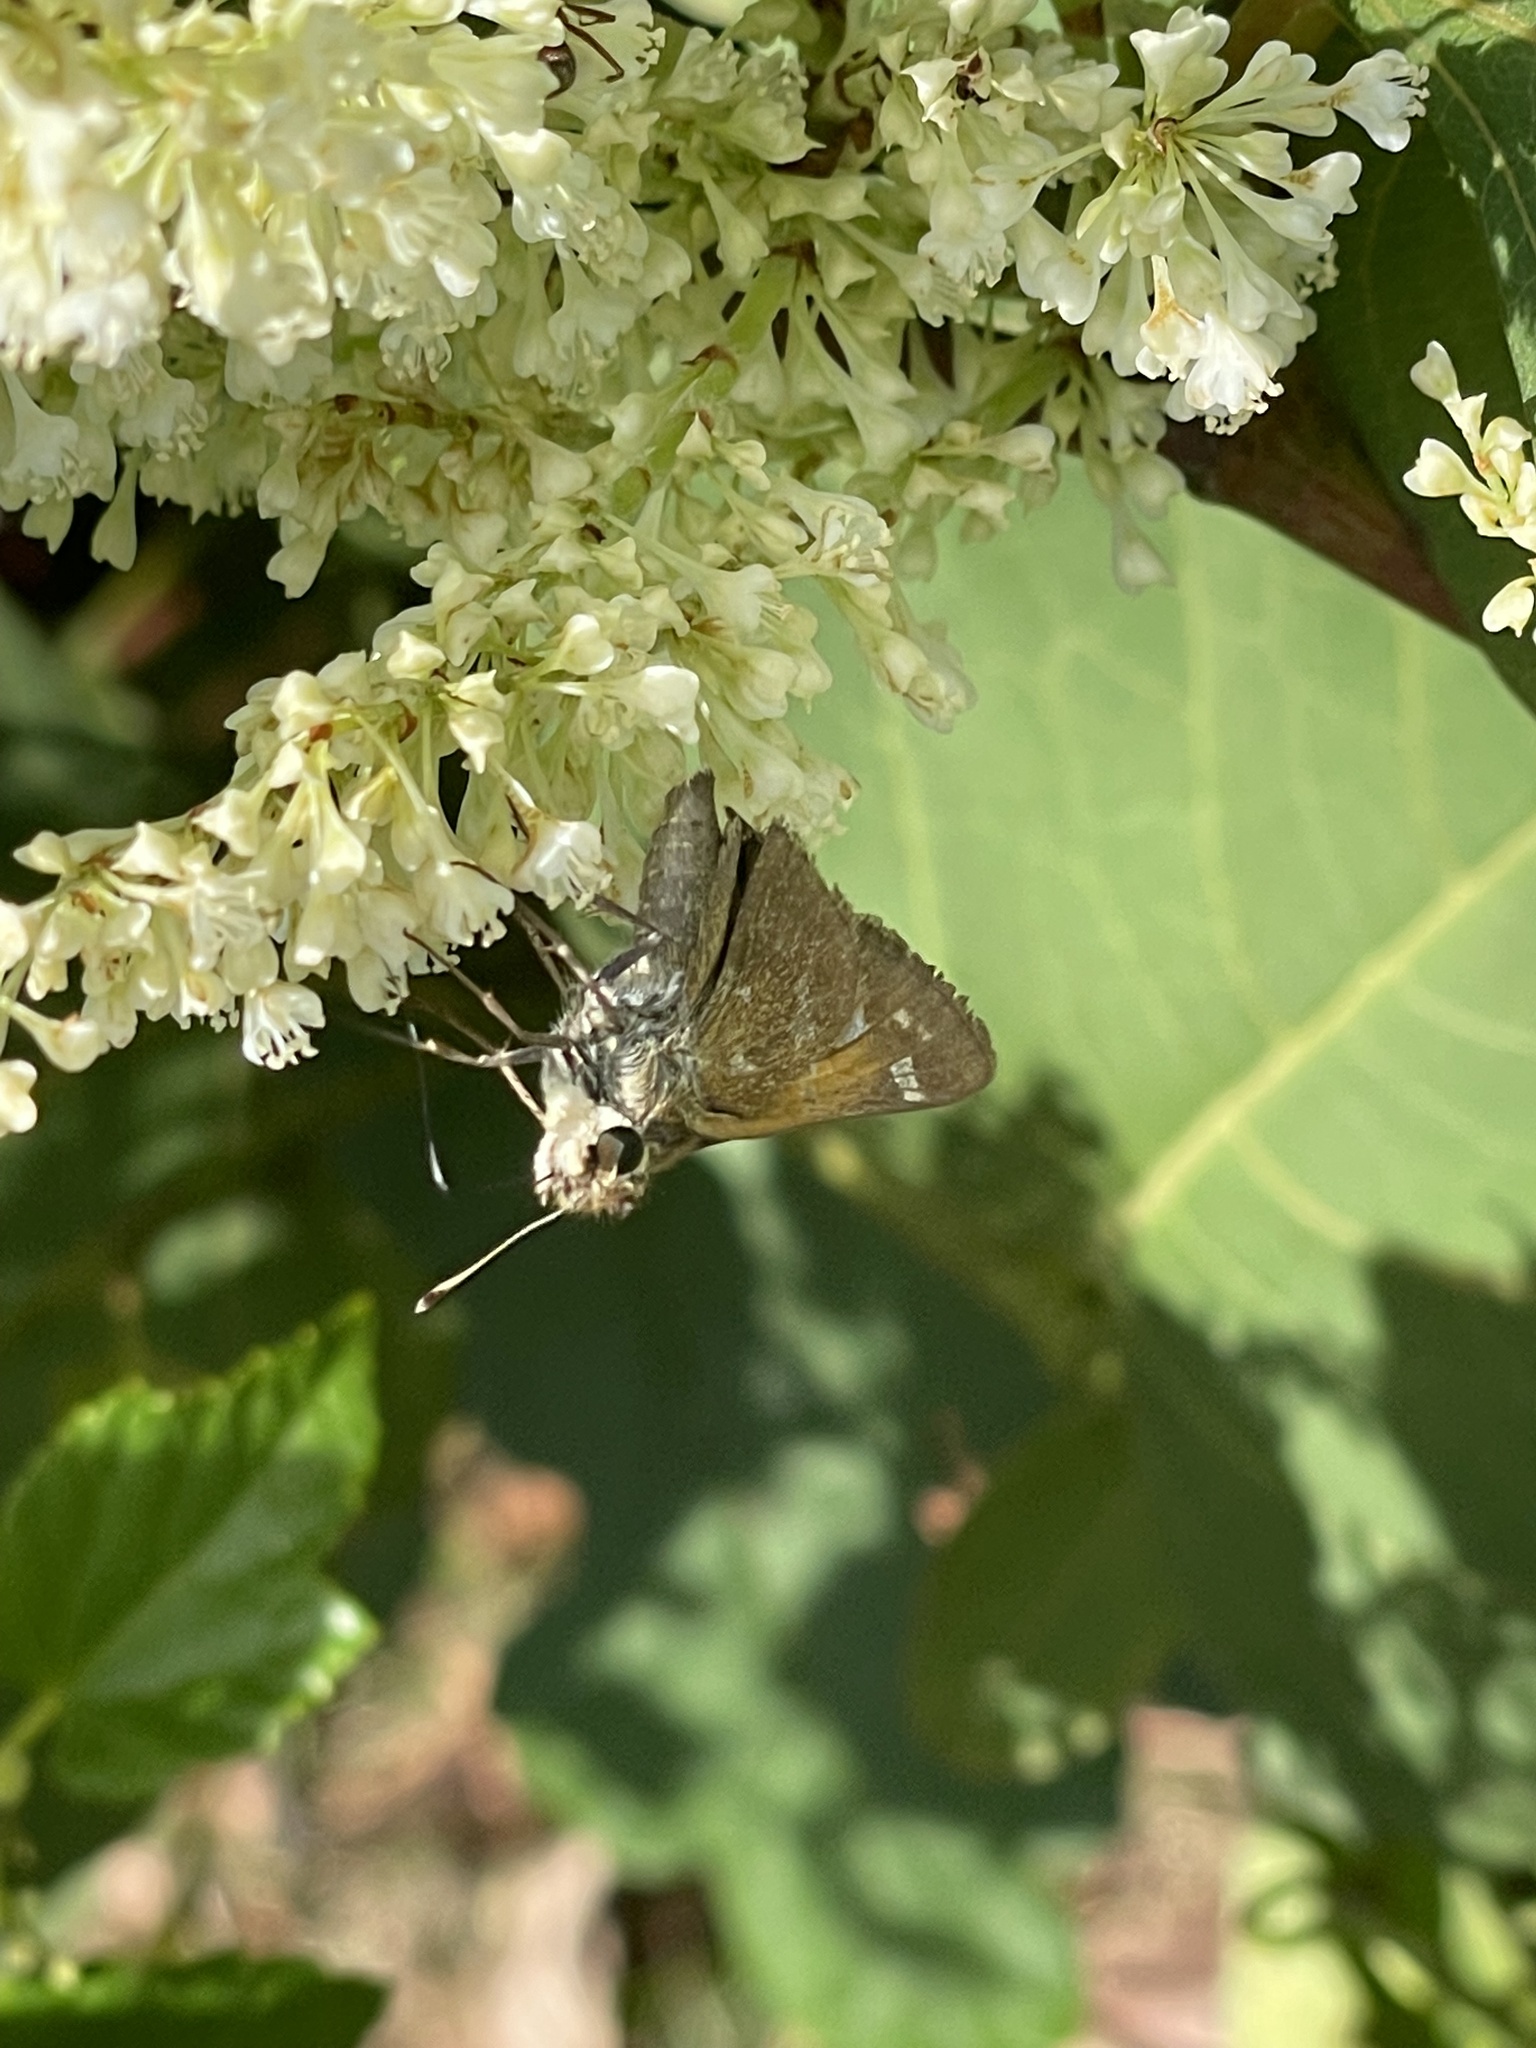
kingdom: Animalia
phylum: Arthropoda
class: Insecta
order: Lepidoptera
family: Hesperiidae
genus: Atalopedes
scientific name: Atalopedes
